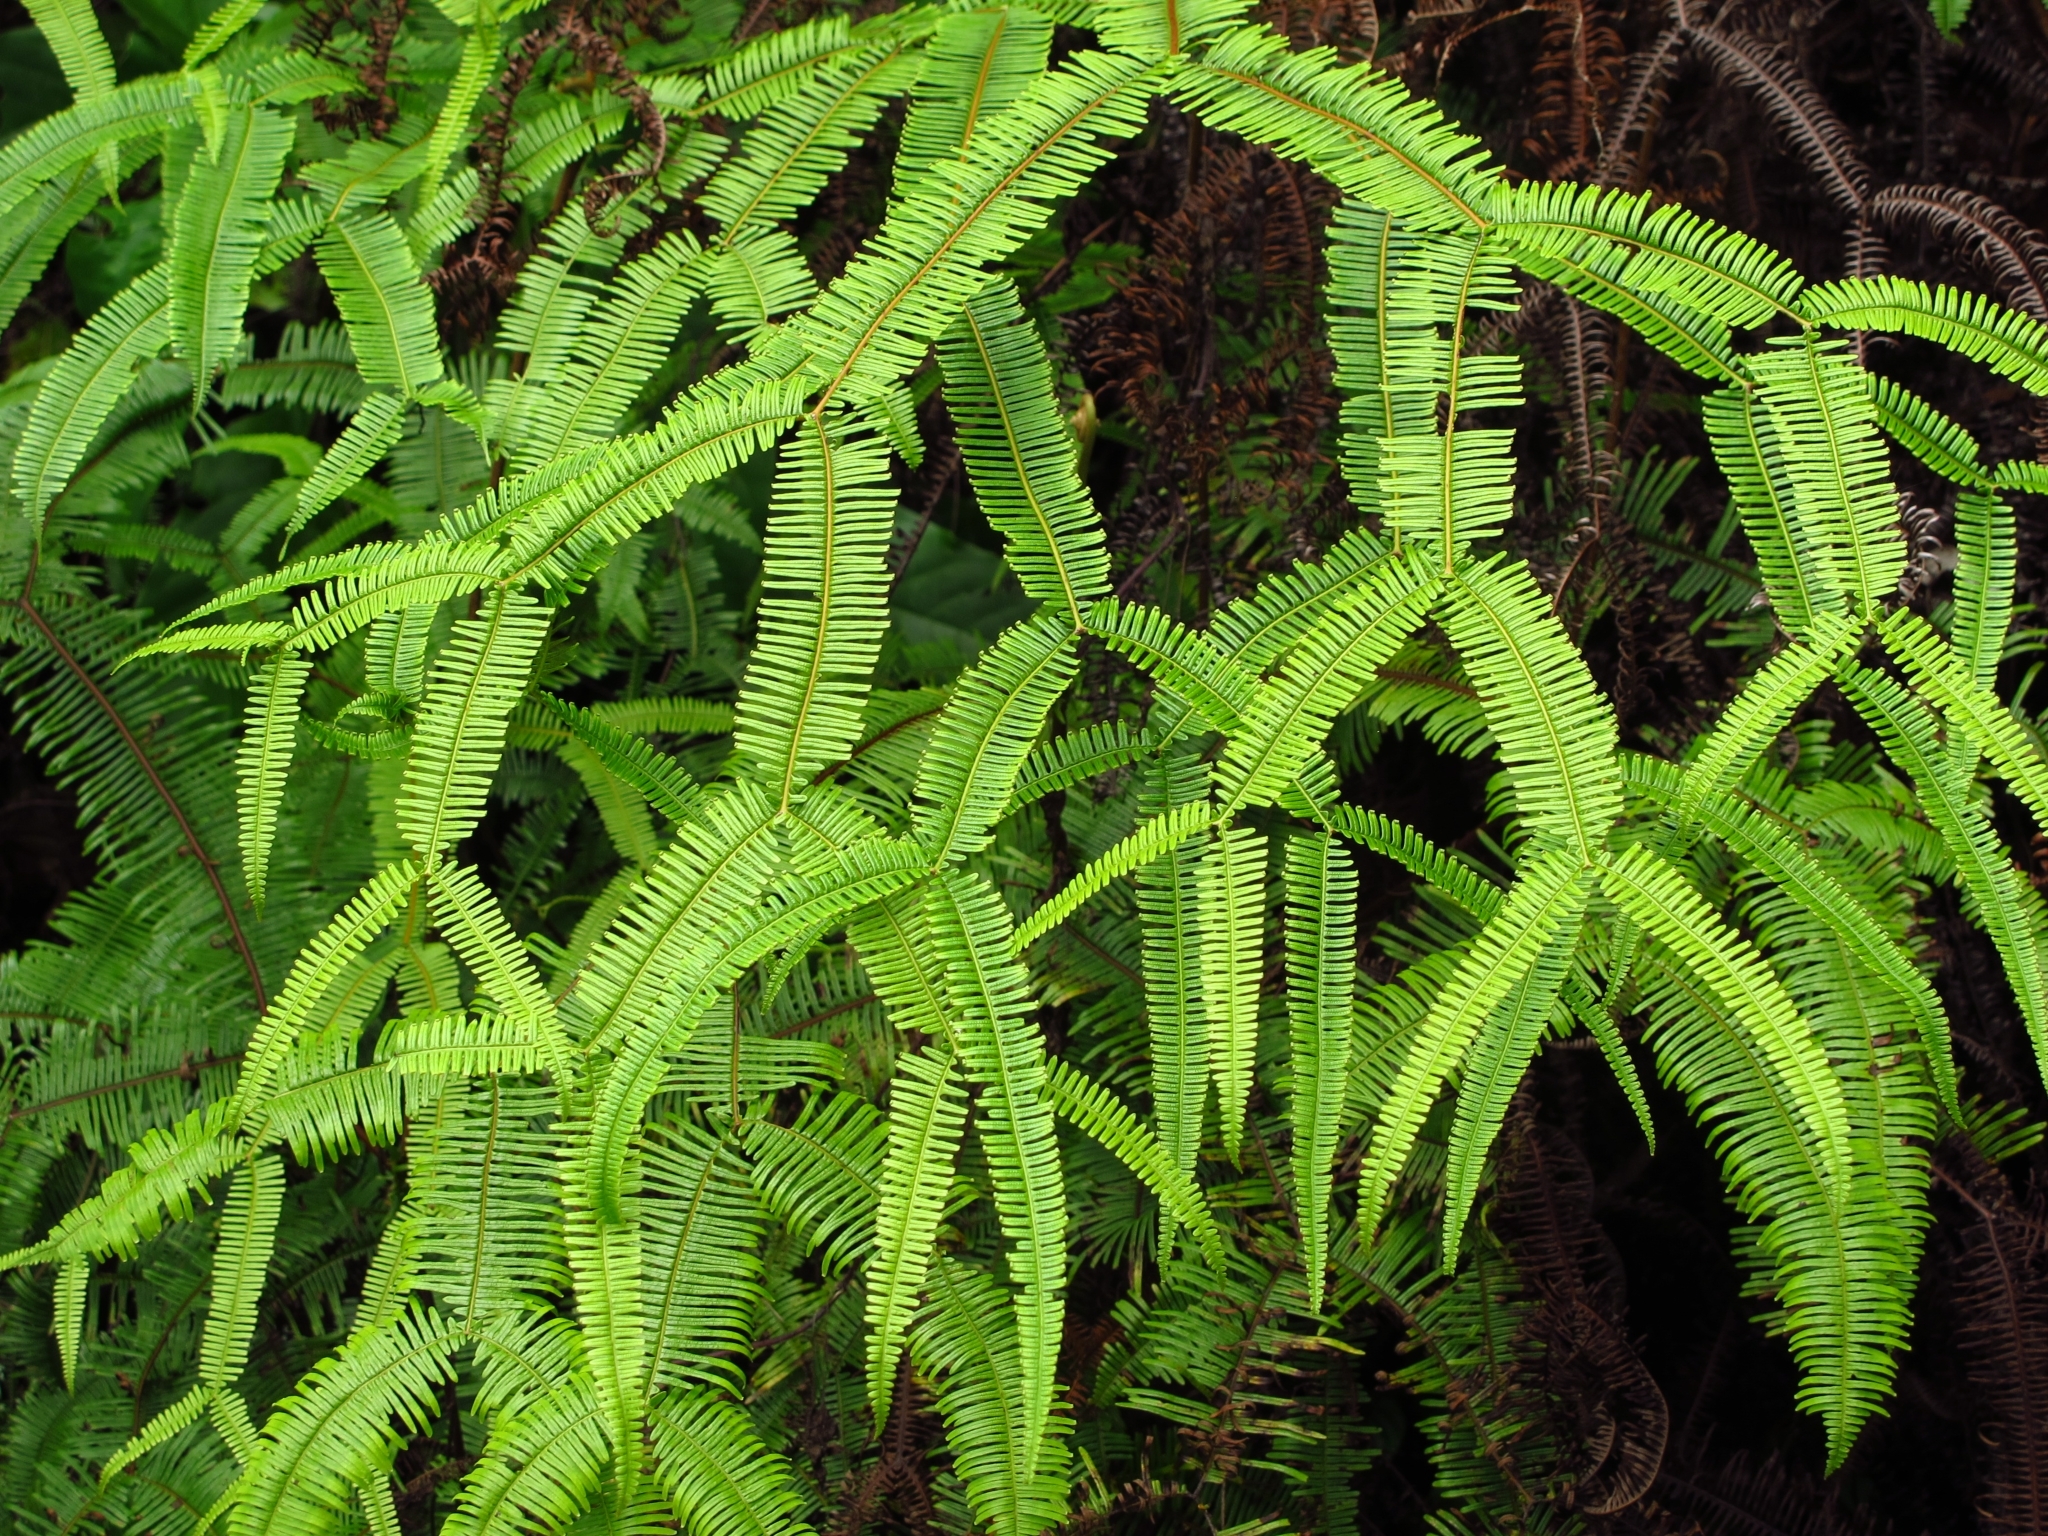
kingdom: Plantae
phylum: Tracheophyta
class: Polypodiopsida
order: Gleicheniales
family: Gleicheniaceae
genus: Dicranopteris
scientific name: Dicranopteris linearis
